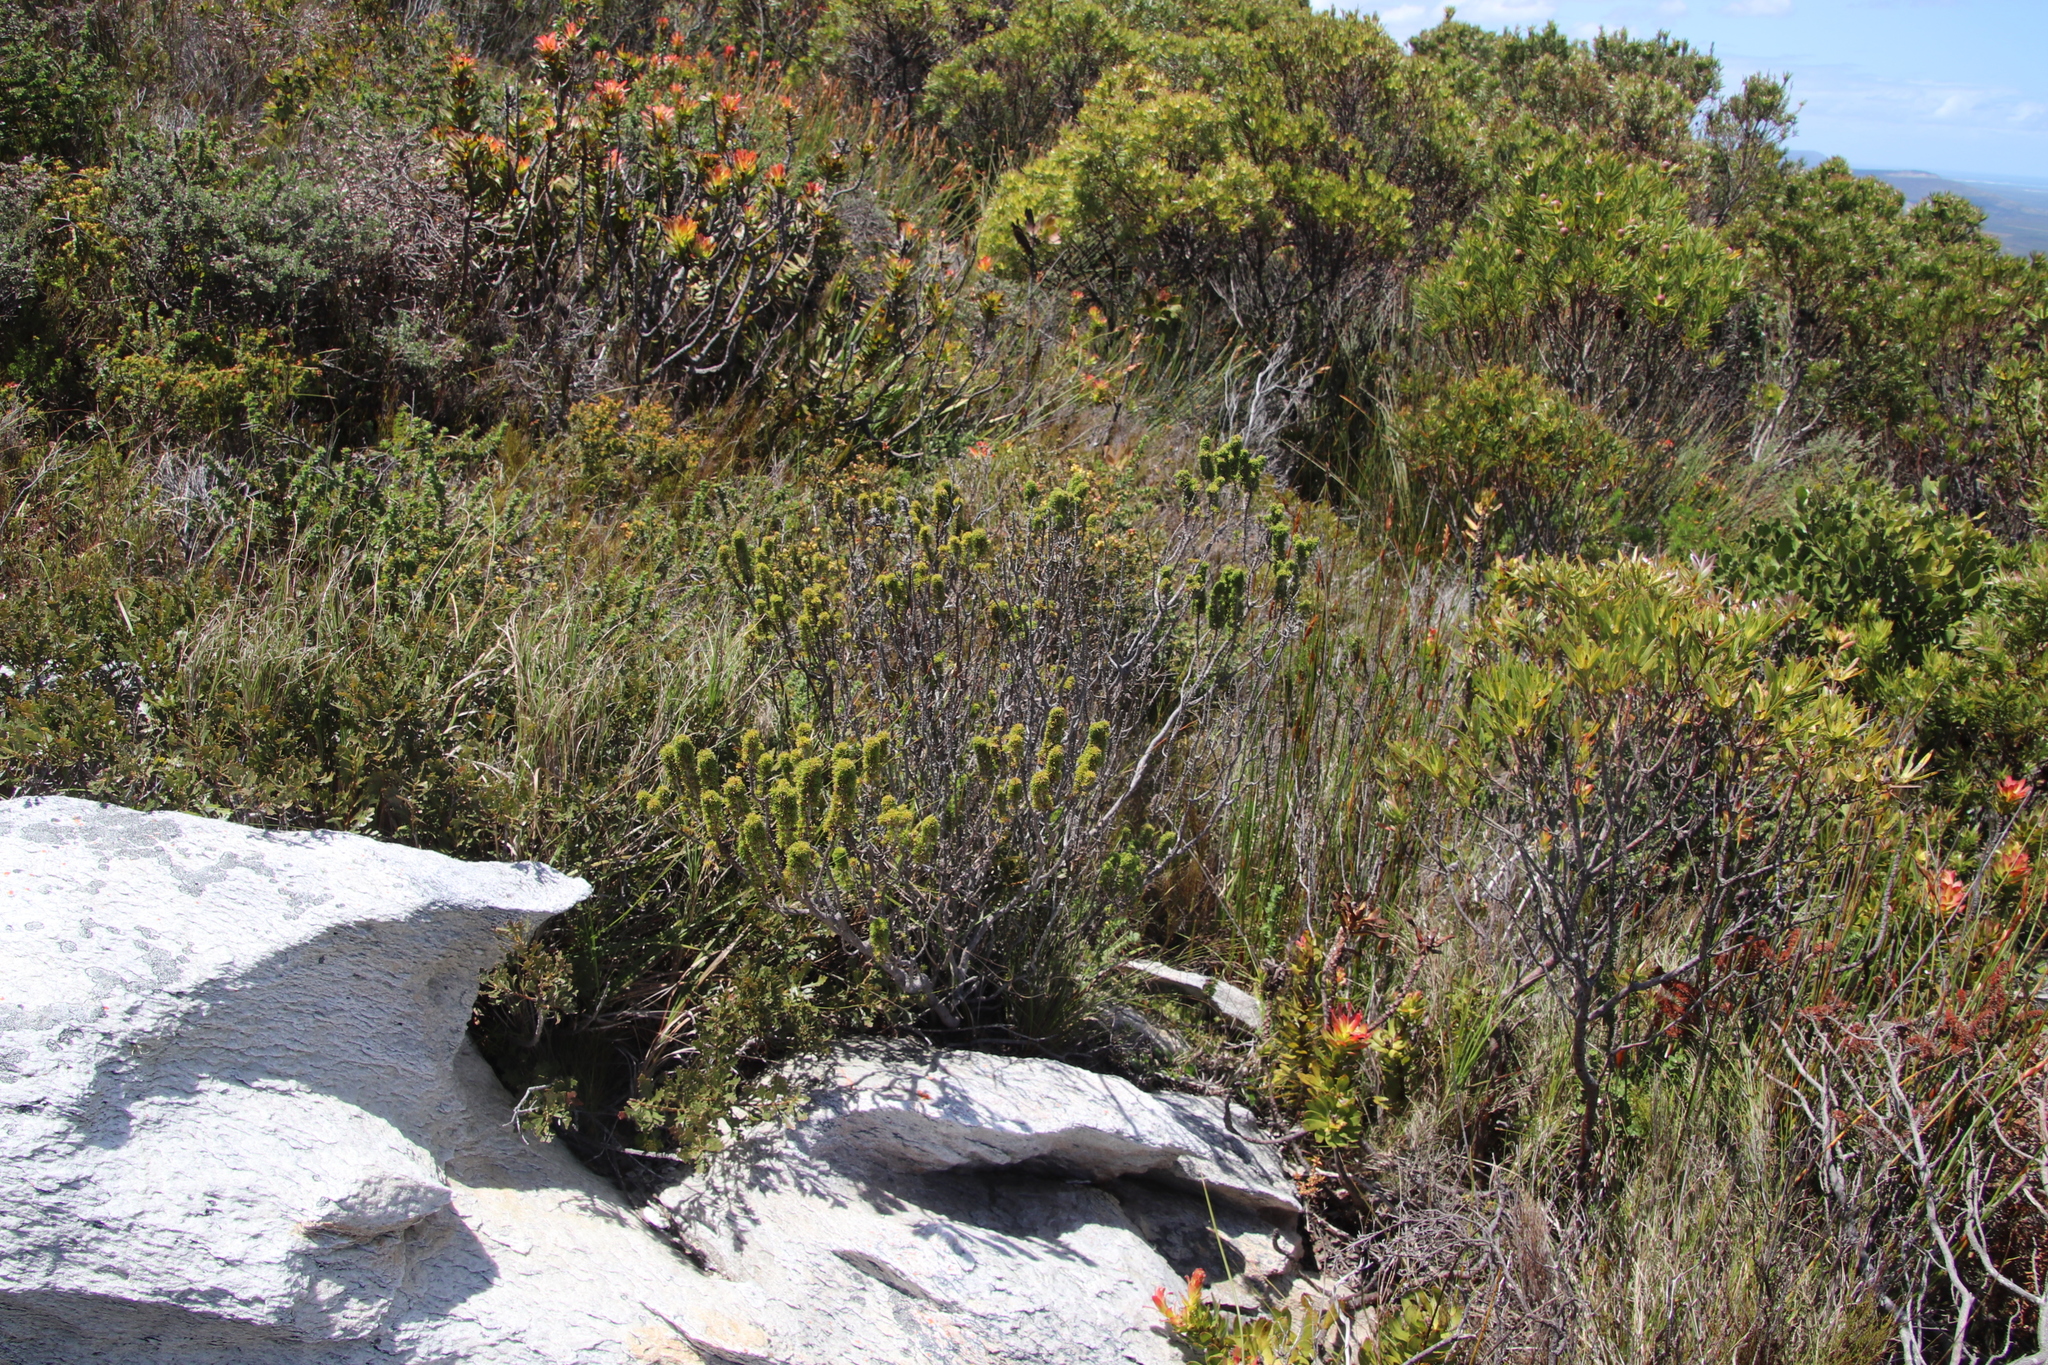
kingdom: Plantae
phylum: Tracheophyta
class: Magnoliopsida
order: Ericales
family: Ericaceae
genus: Erica
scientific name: Erica coccinea
